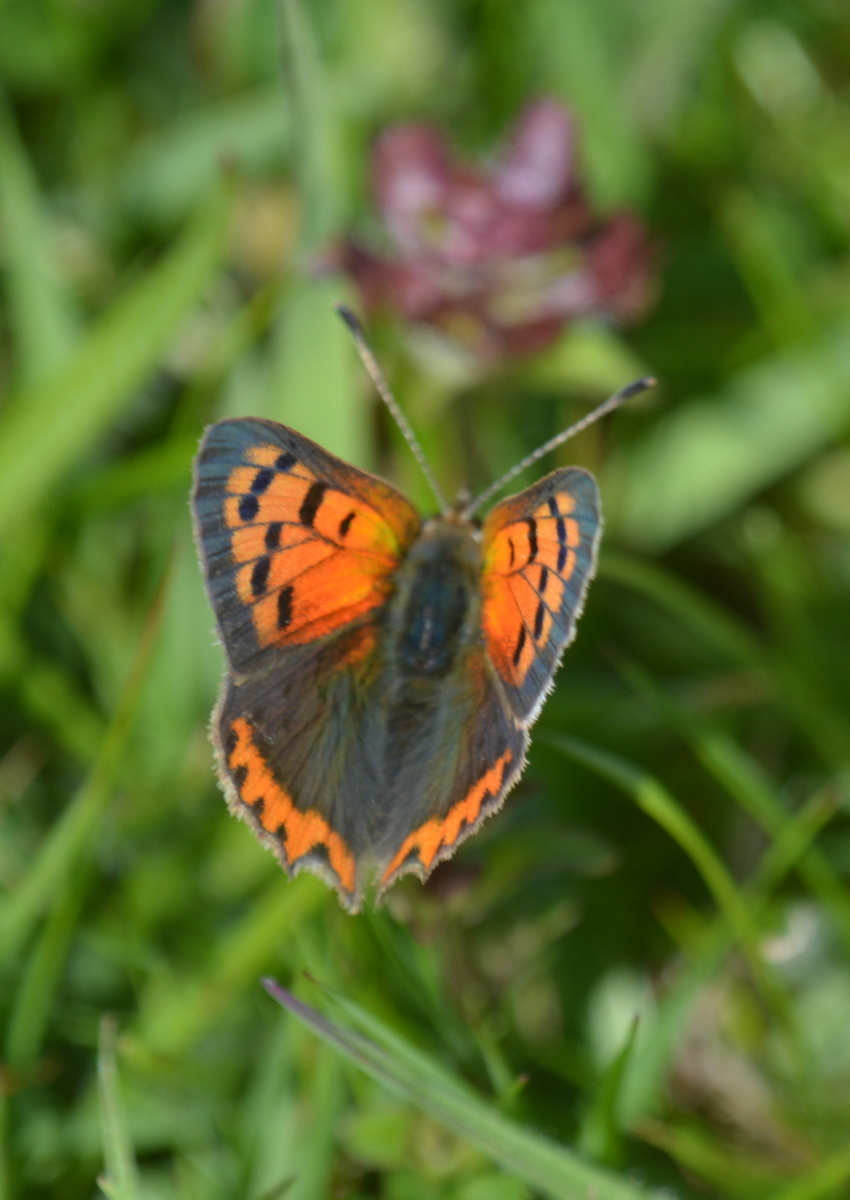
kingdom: Animalia
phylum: Arthropoda
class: Insecta
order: Lepidoptera
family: Lycaenidae
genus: Lycaena
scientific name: Lycaena phlaeas
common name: Small copper
